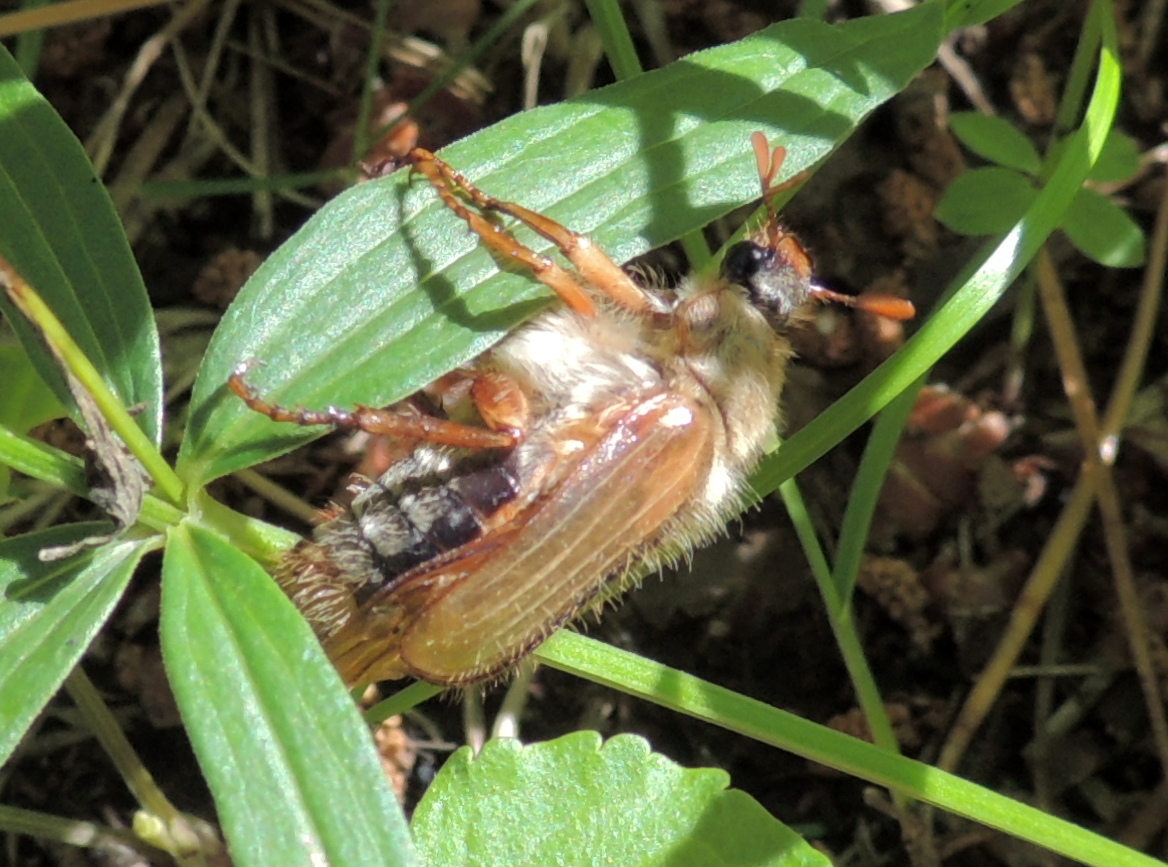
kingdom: Animalia
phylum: Arthropoda
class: Insecta
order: Coleoptera
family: Scarabaeidae
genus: Amphimallon
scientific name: Amphimallon solstitiale
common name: Summer chafer
